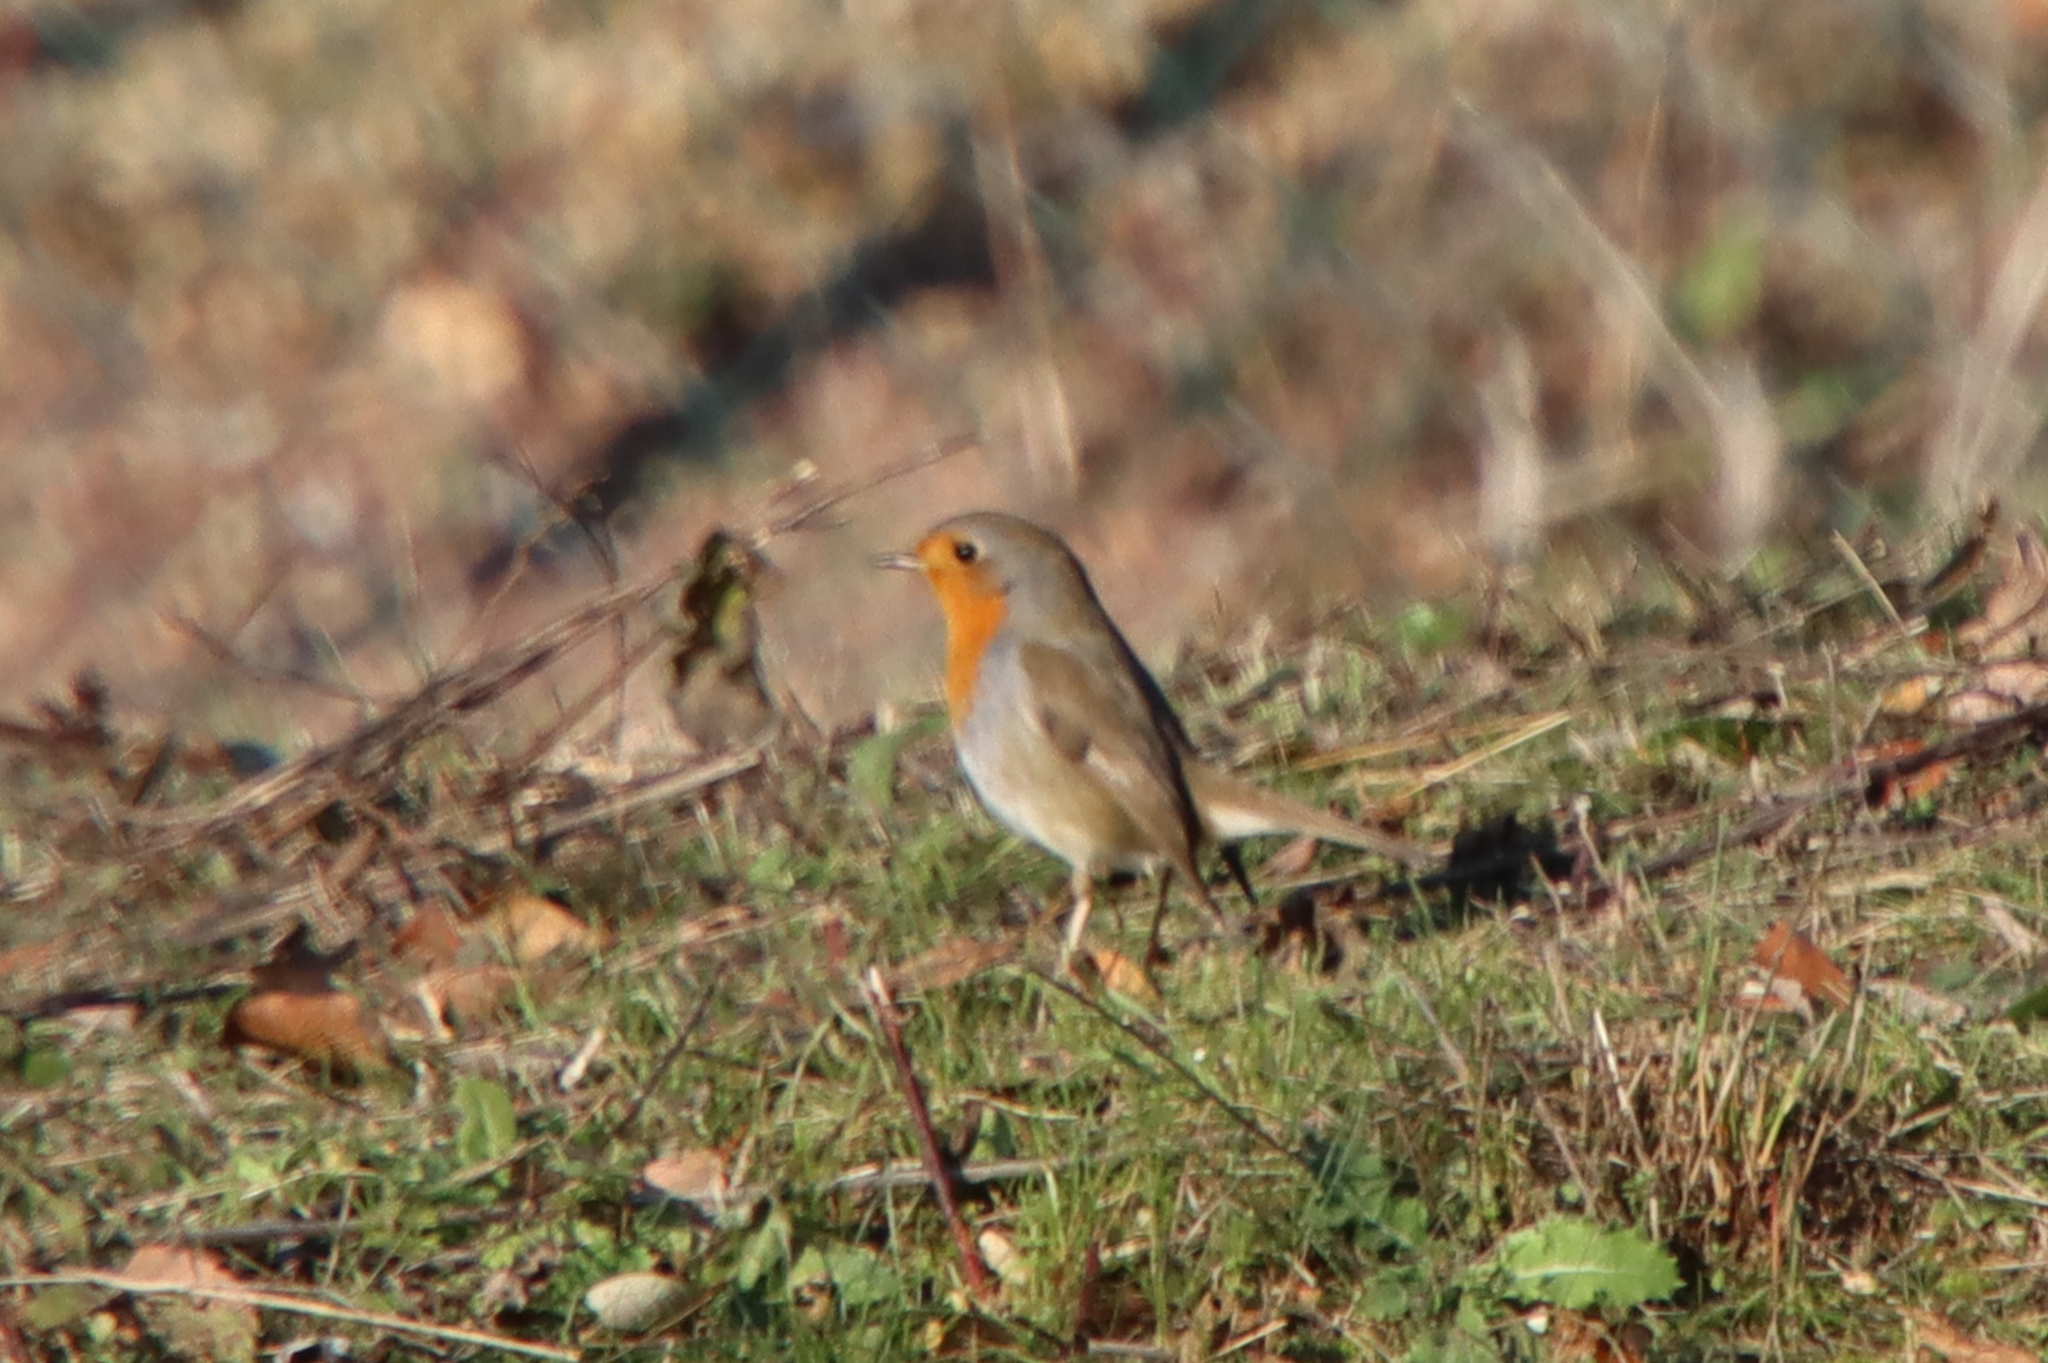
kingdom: Animalia
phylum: Chordata
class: Aves
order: Passeriformes
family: Muscicapidae
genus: Erithacus
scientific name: Erithacus rubecula
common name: European robin
